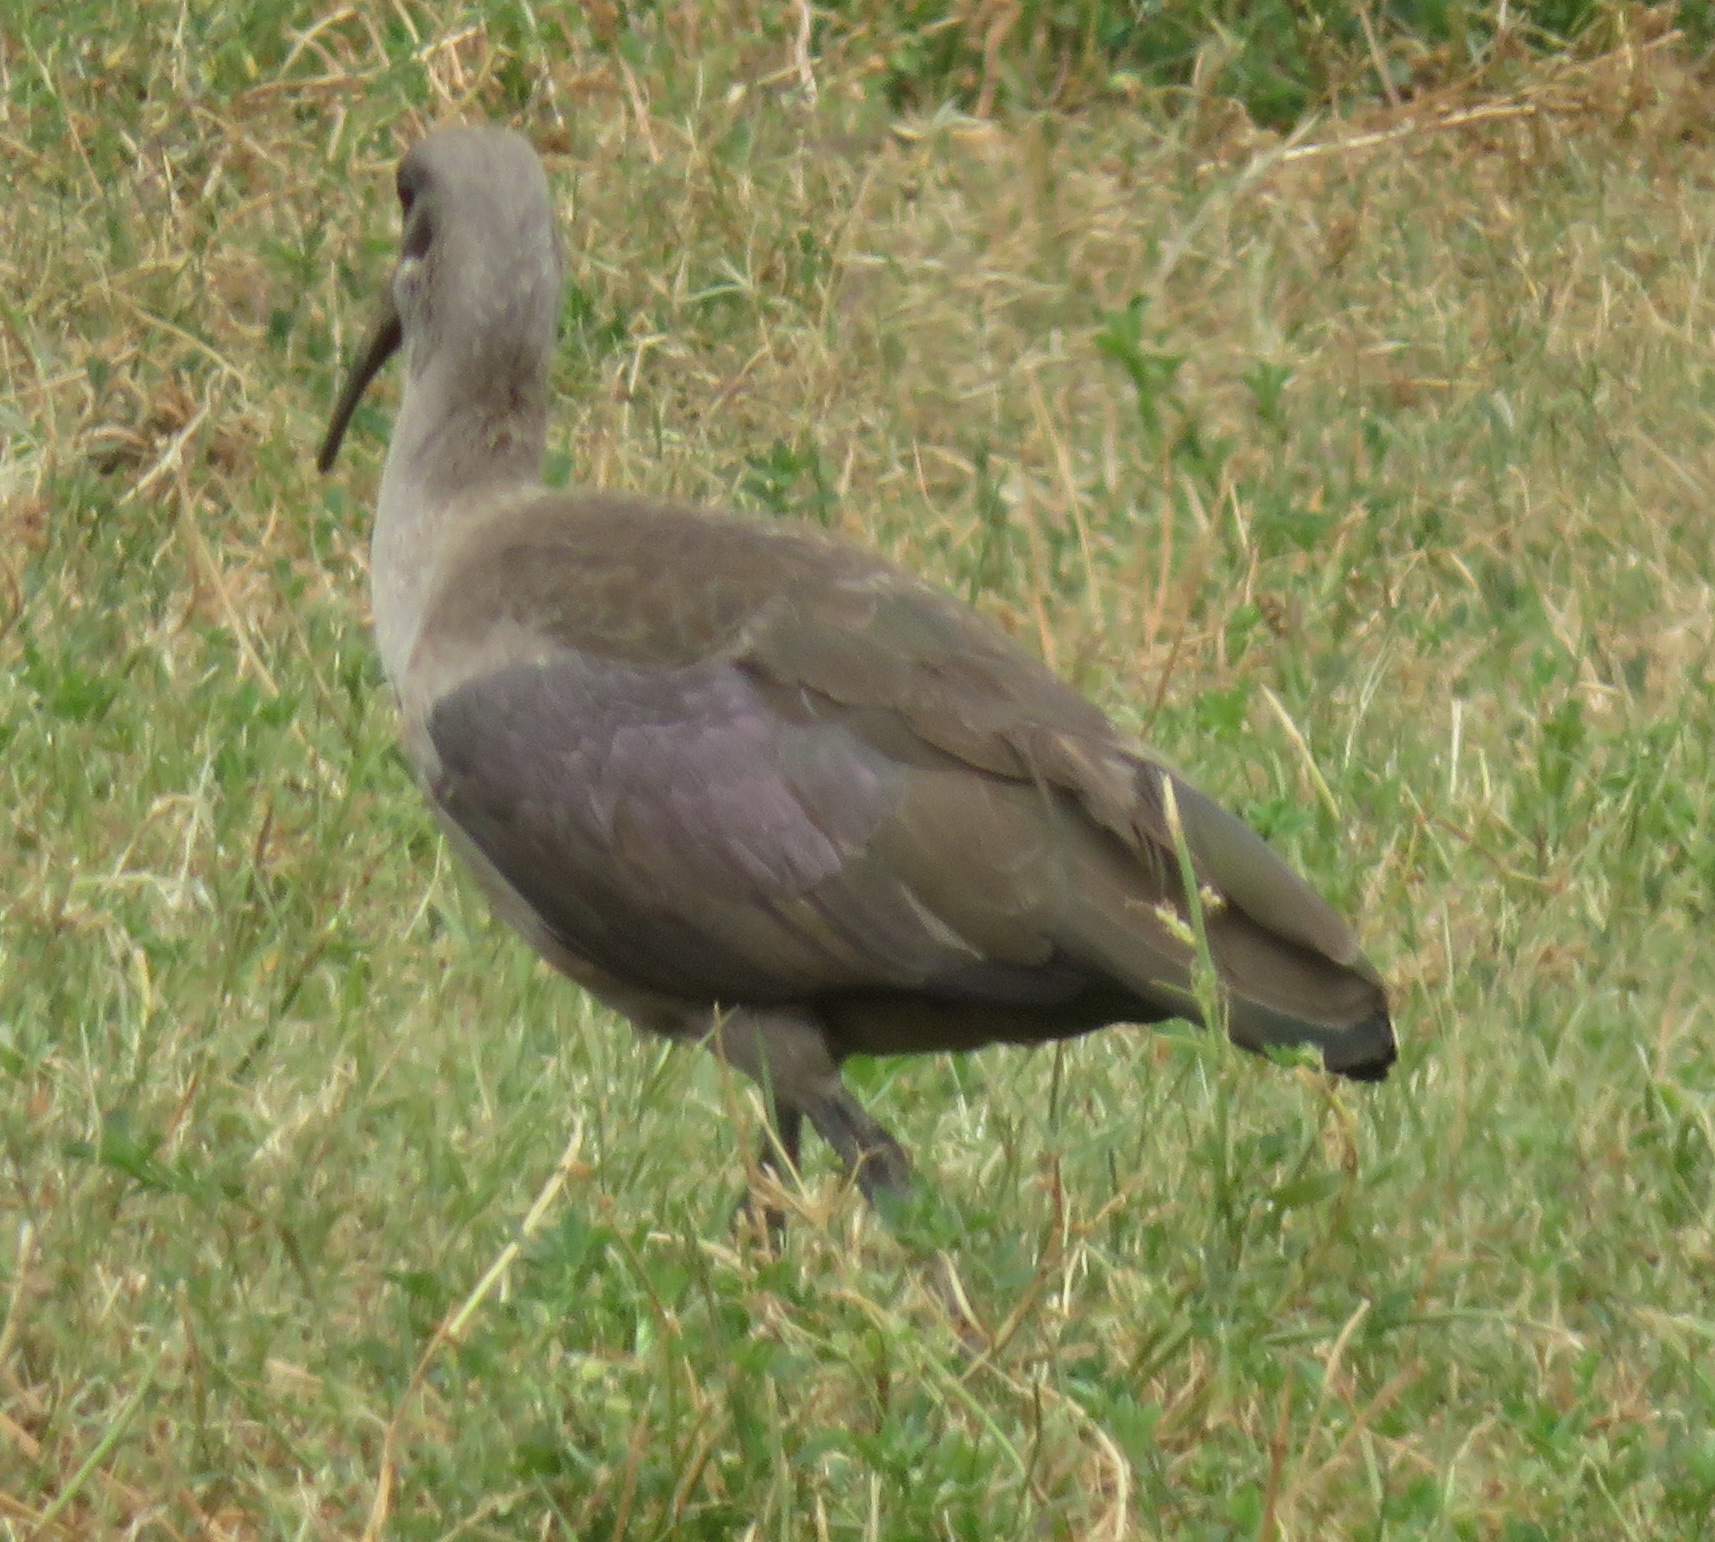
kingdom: Animalia
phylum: Chordata
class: Aves
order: Pelecaniformes
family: Threskiornithidae
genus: Bostrychia
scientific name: Bostrychia hagedash
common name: Hadada ibis
